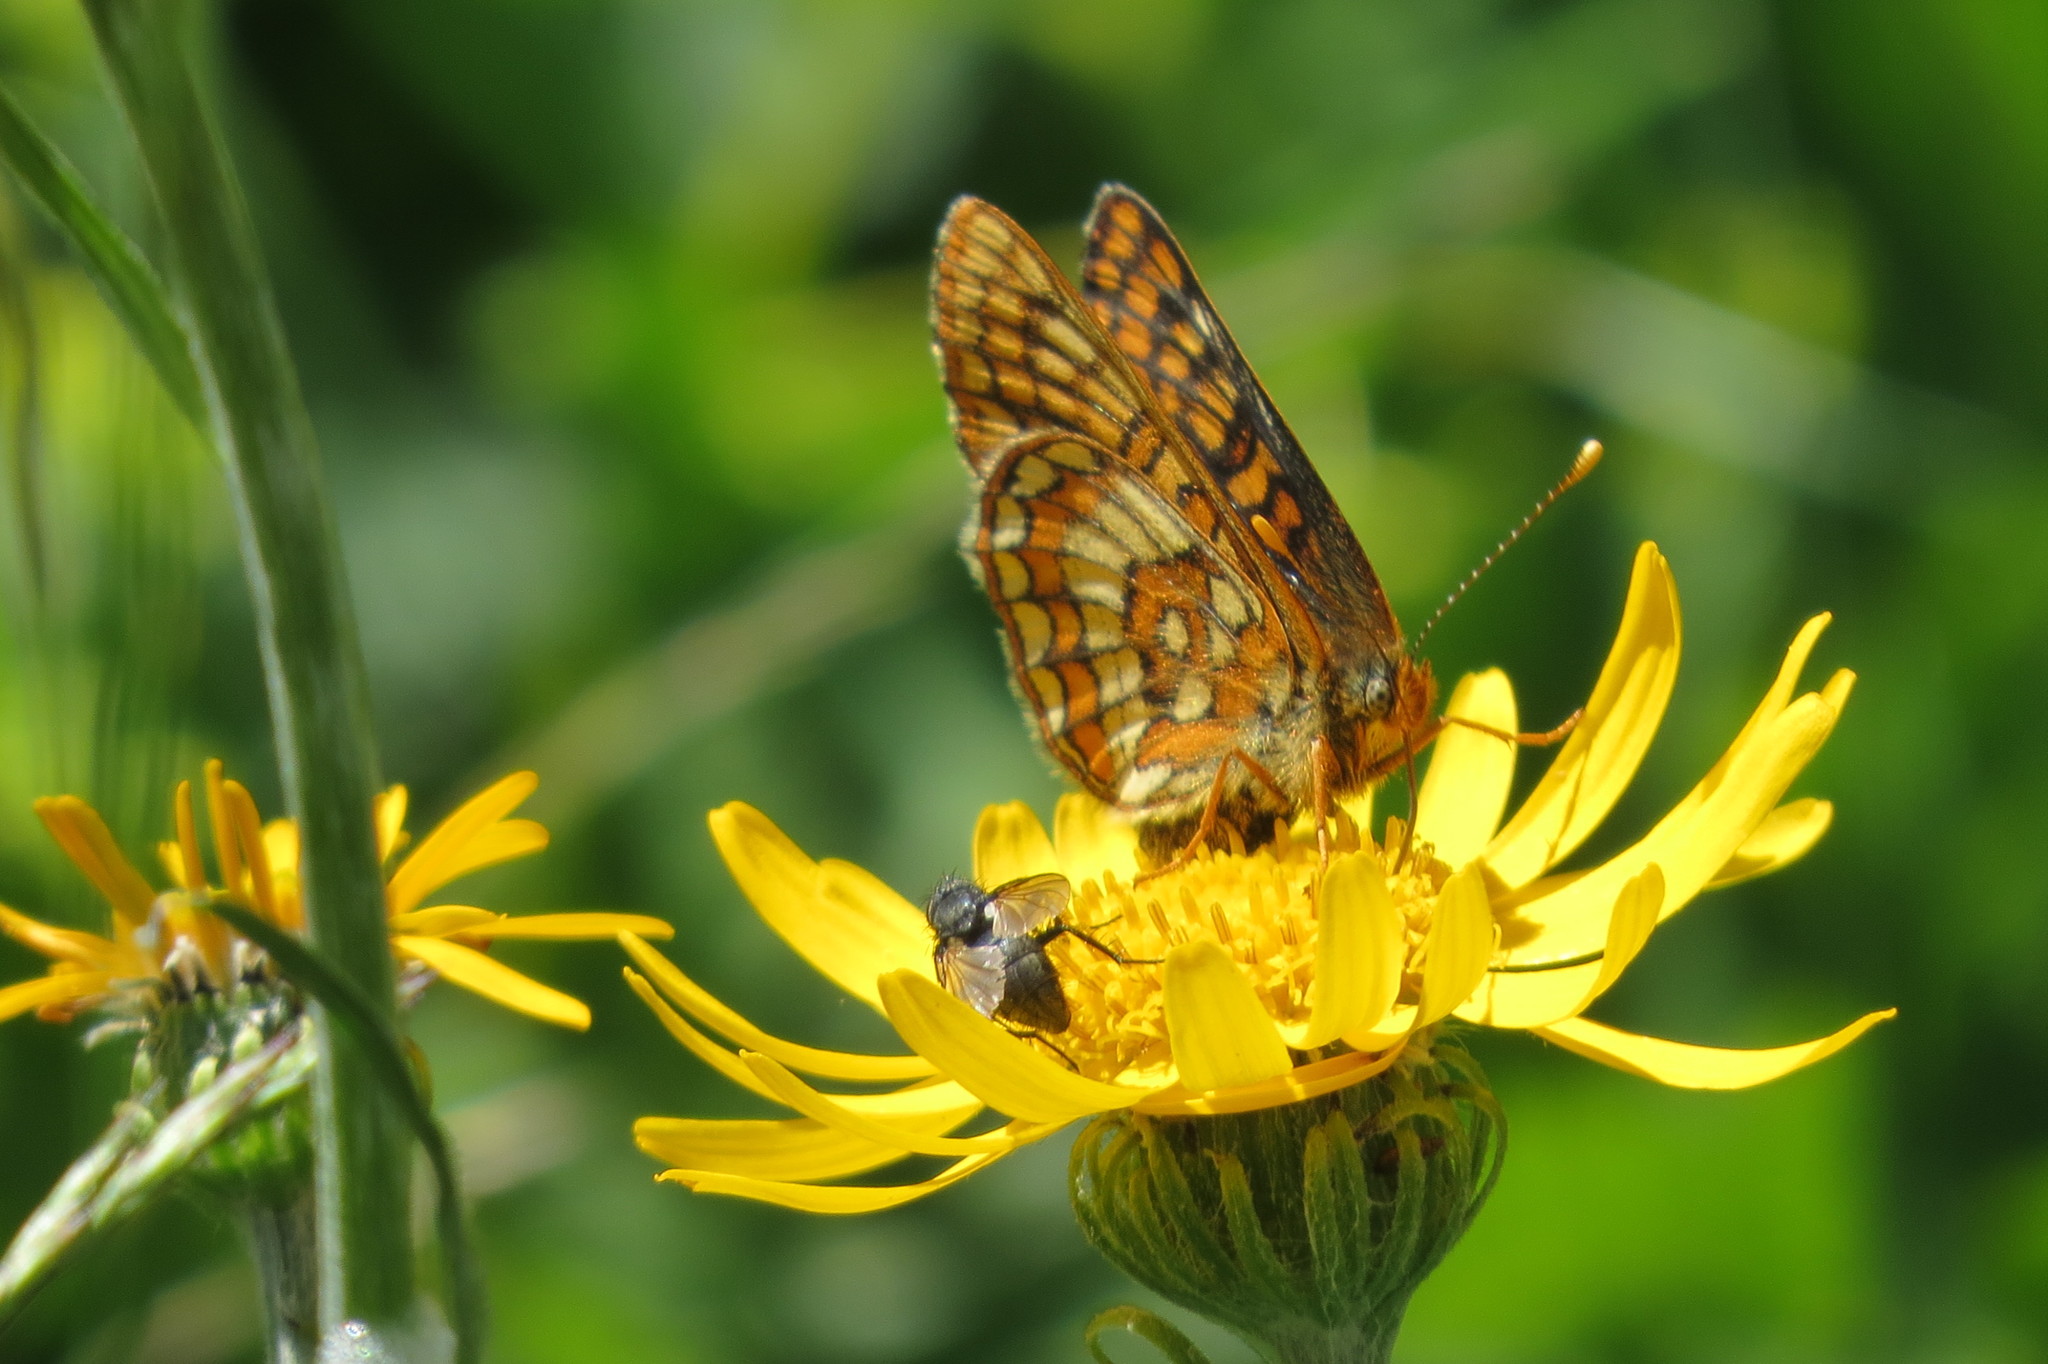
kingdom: Animalia
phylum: Arthropoda
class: Insecta
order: Lepidoptera
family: Nymphalidae
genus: Hypodryas
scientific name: Hypodryas intermedia
